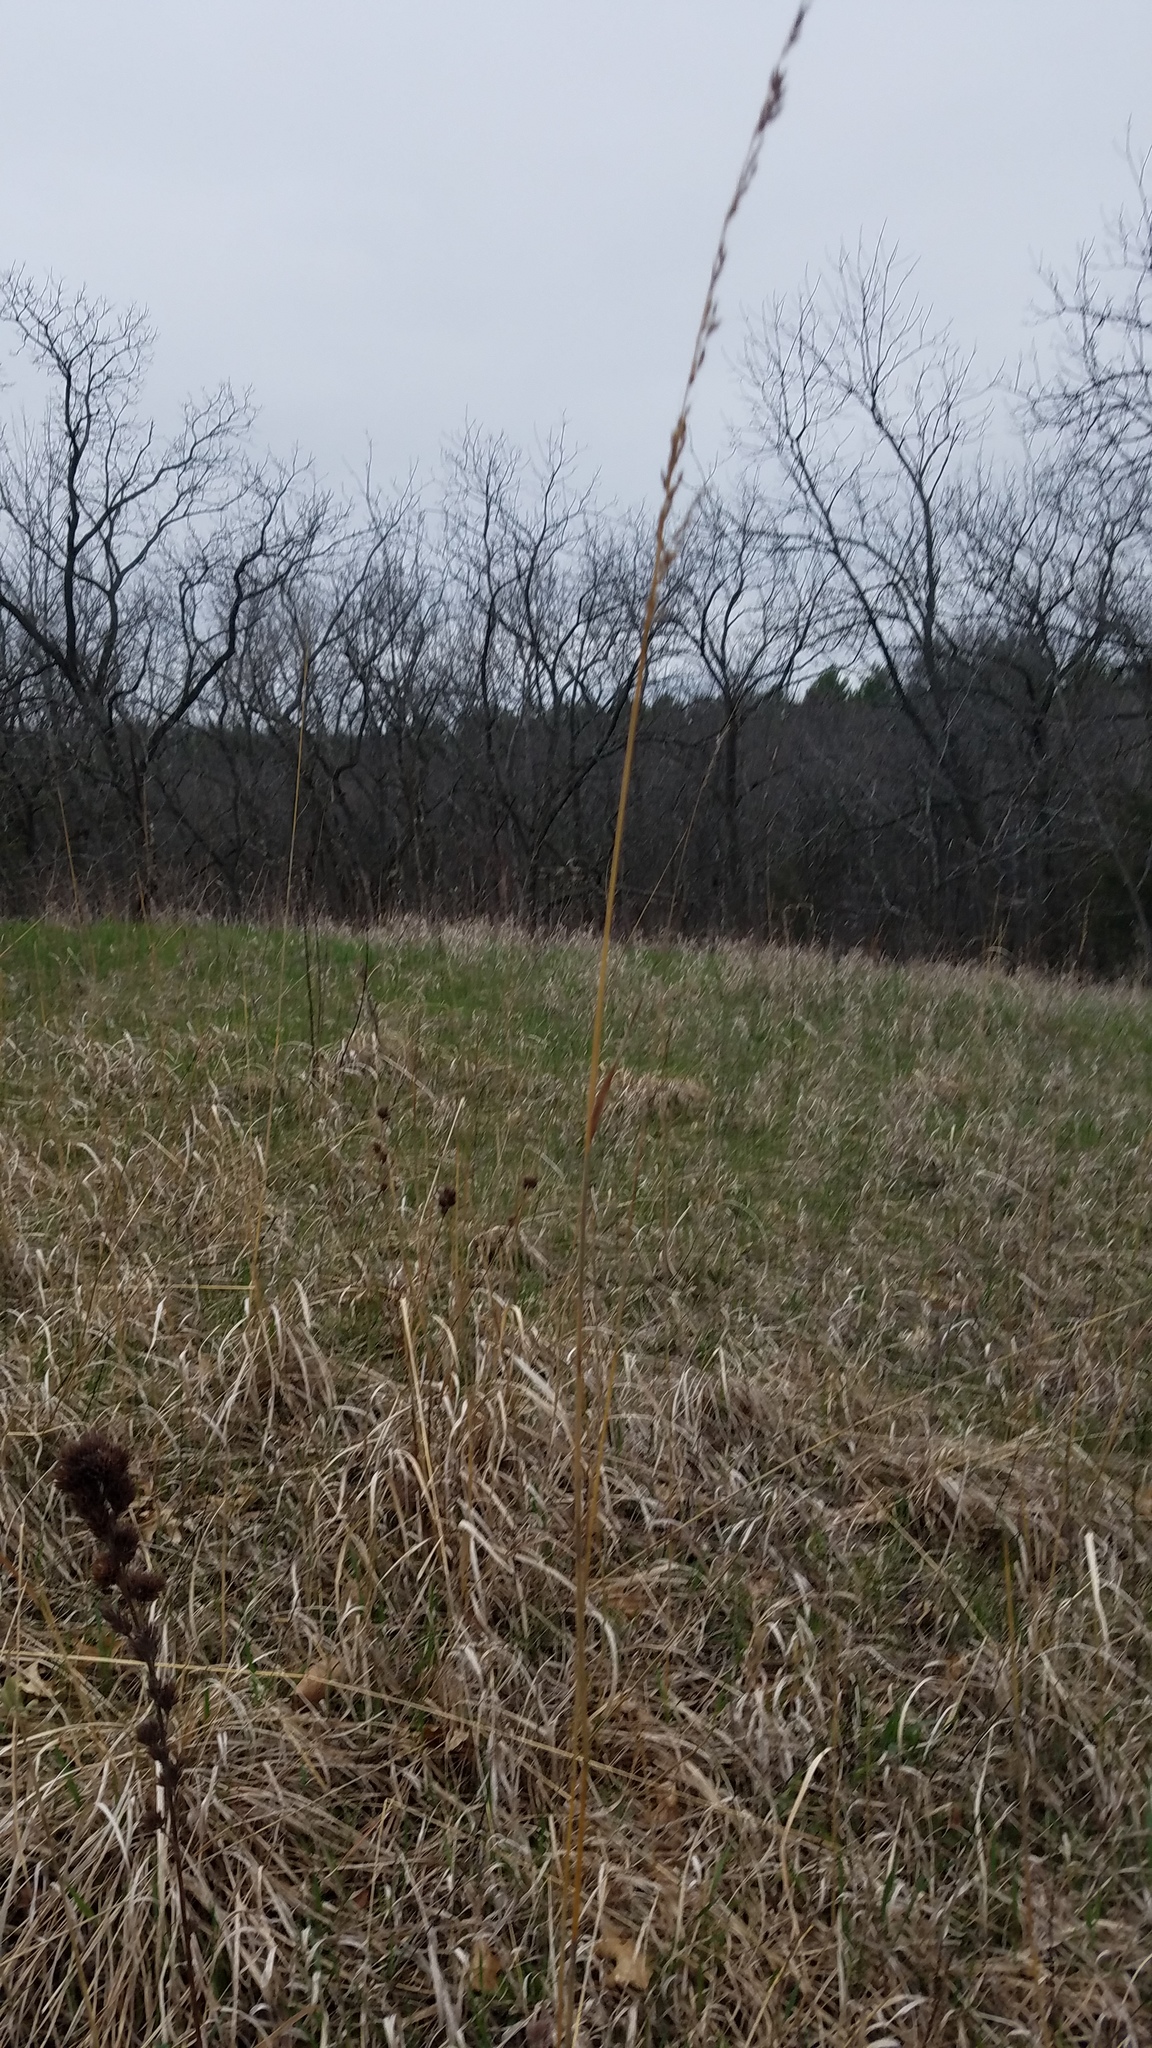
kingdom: Plantae
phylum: Tracheophyta
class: Liliopsida
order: Poales
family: Poaceae
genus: Sorghastrum
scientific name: Sorghastrum nutans
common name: Indian grass
